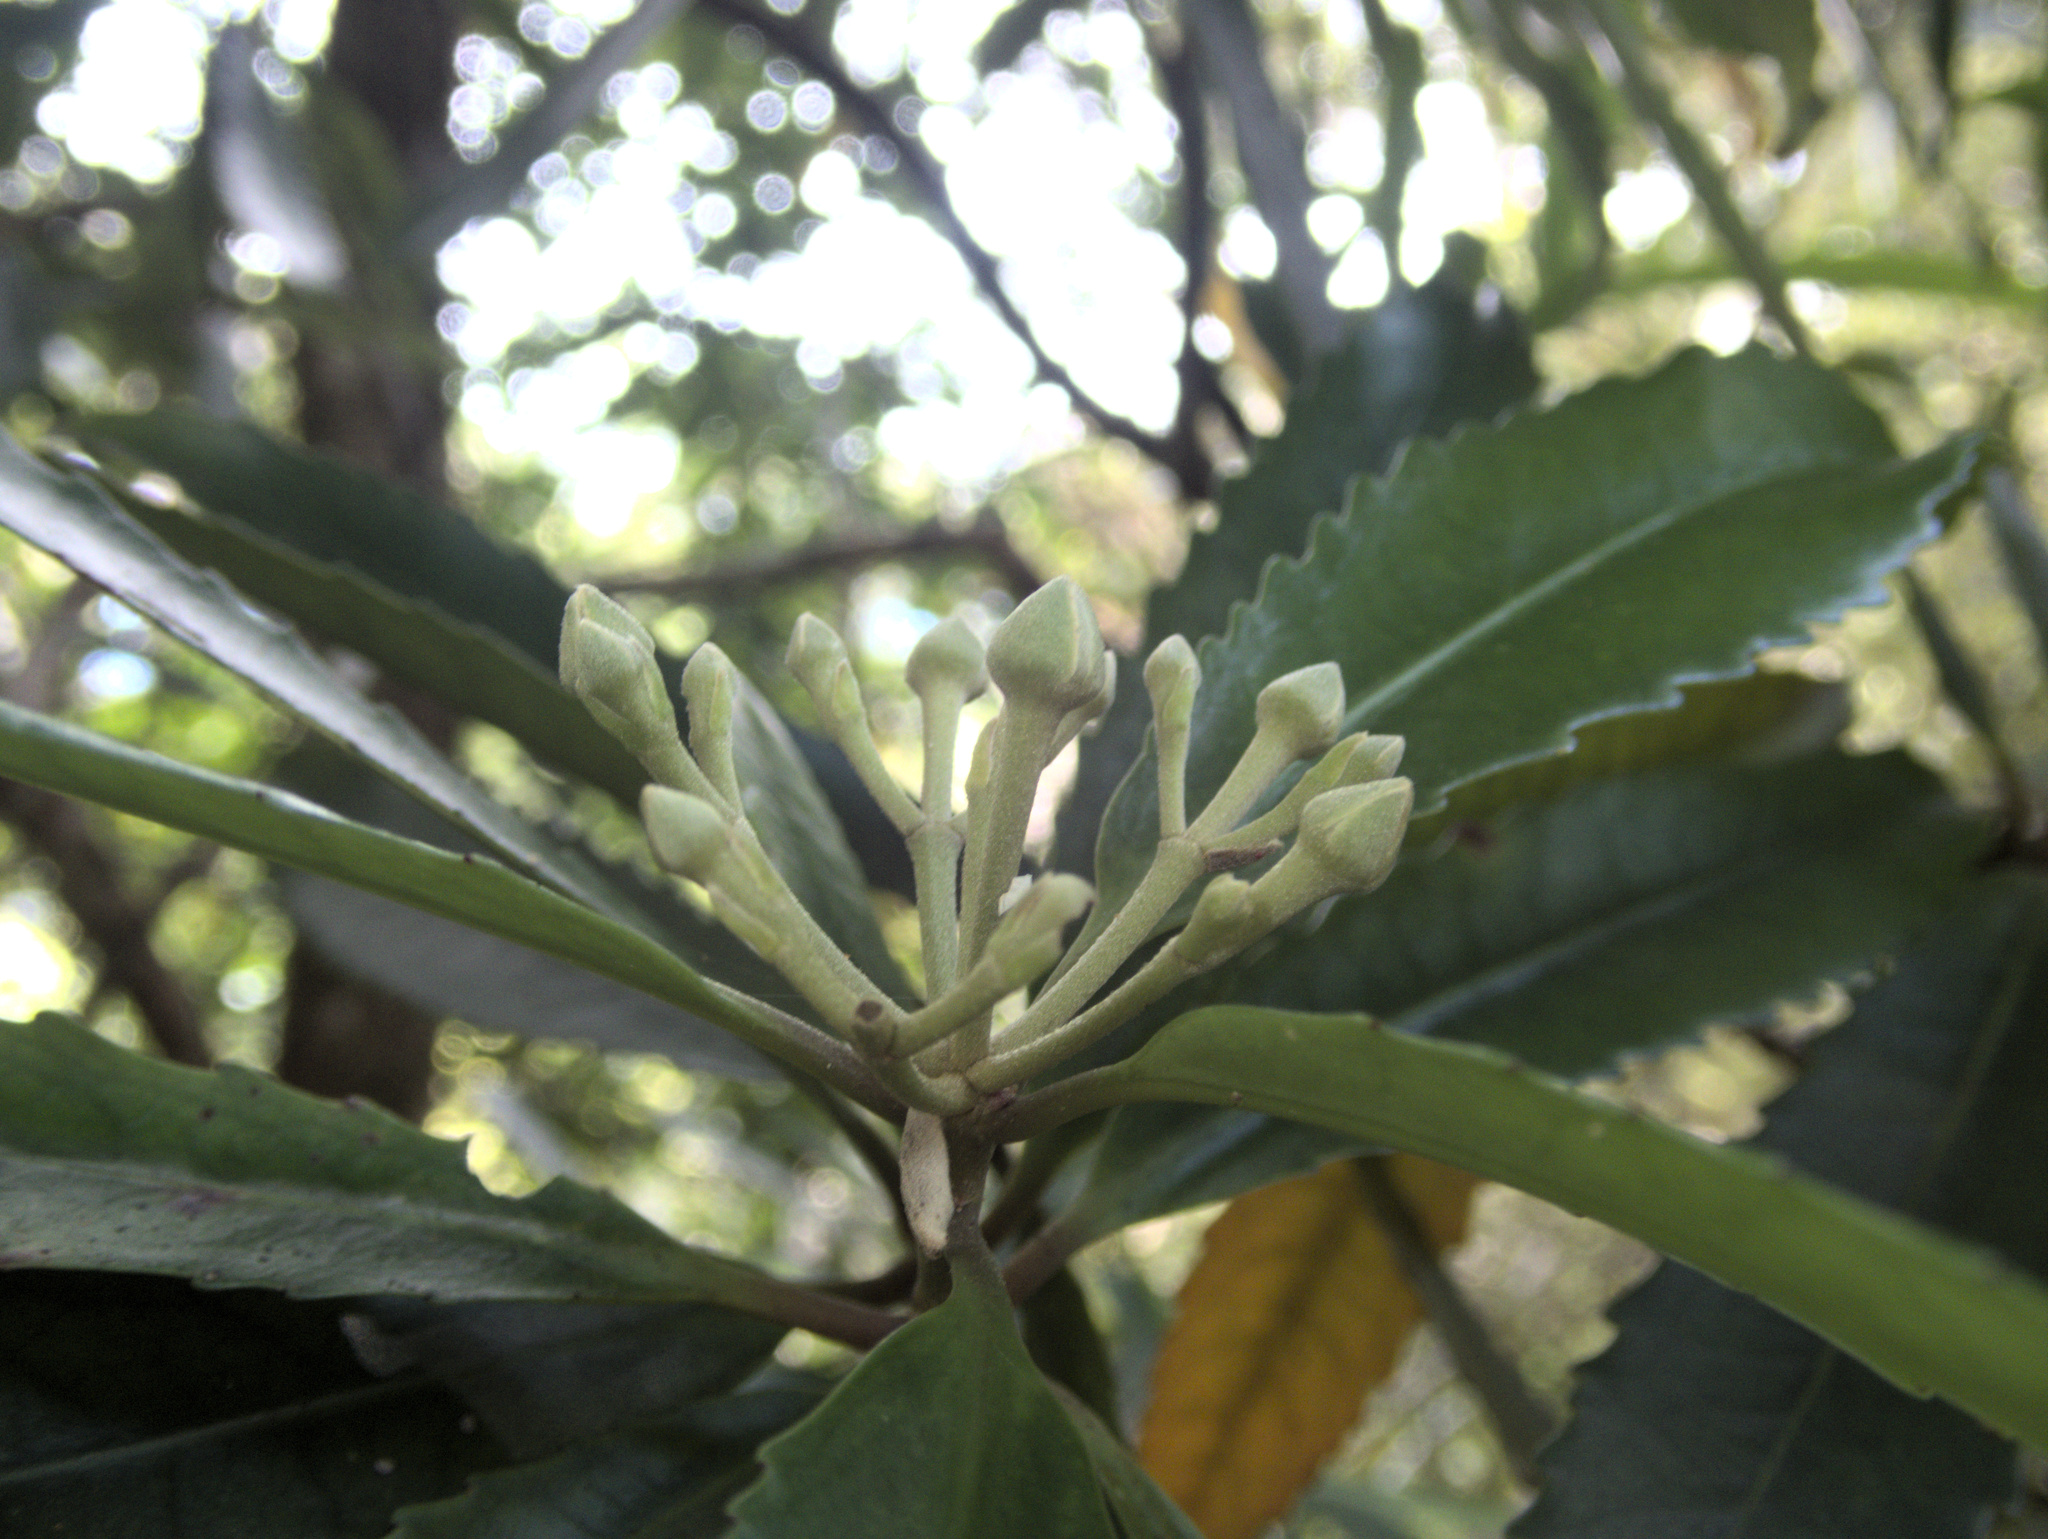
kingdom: Plantae
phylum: Tracheophyta
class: Magnoliopsida
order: Crossosomatales
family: Ixerbaceae
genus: Ixerba
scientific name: Ixerba brexioides
